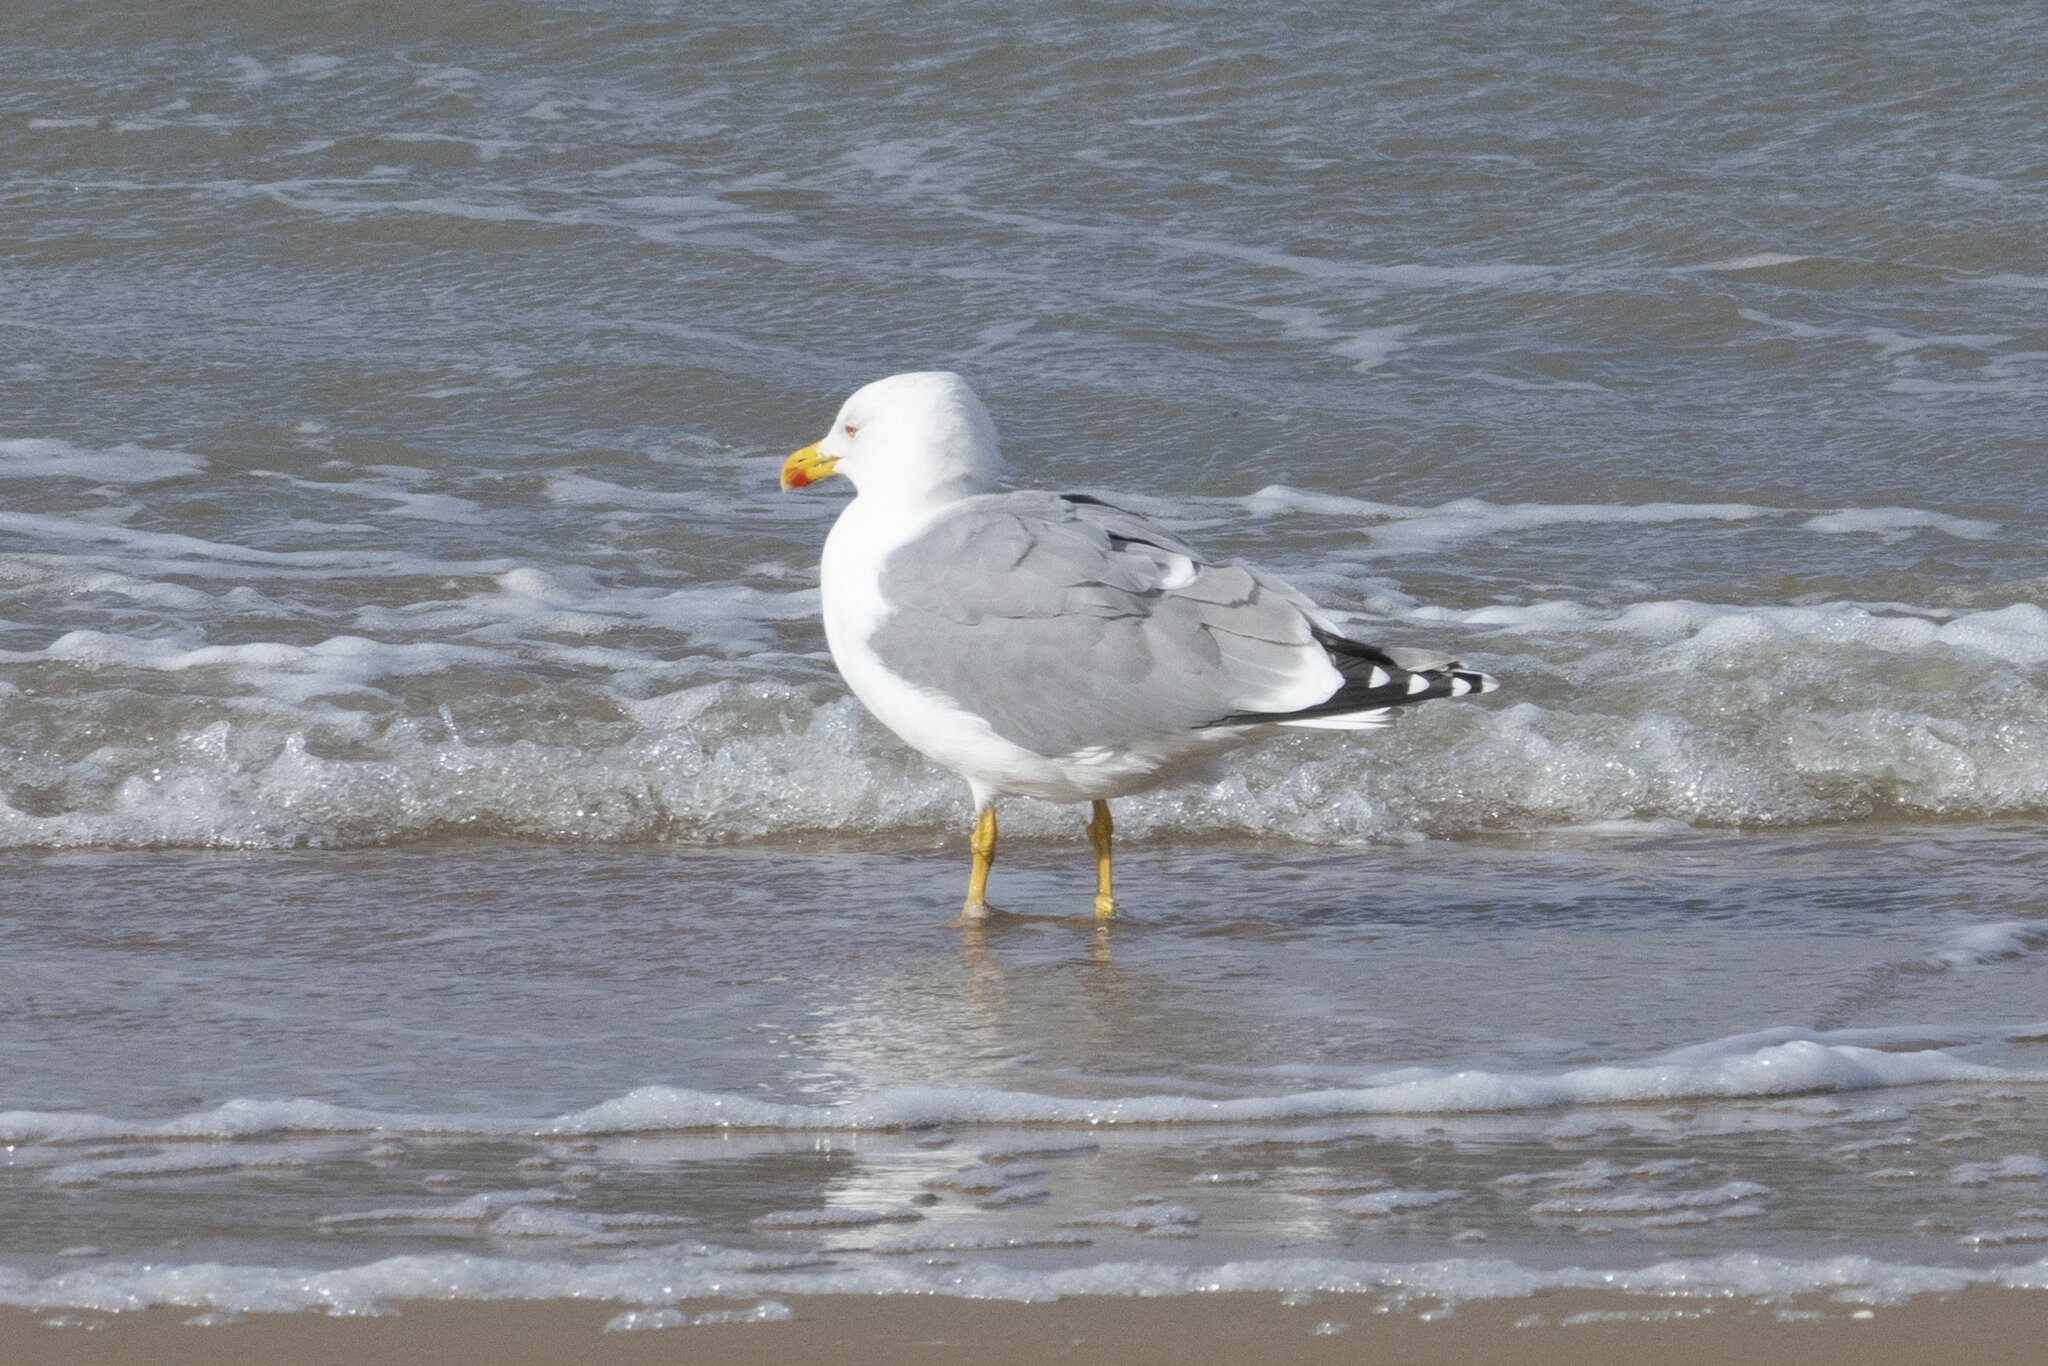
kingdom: Animalia
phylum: Chordata
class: Aves
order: Charadriiformes
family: Laridae
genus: Larus
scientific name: Larus michahellis
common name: Yellow-legged gull
